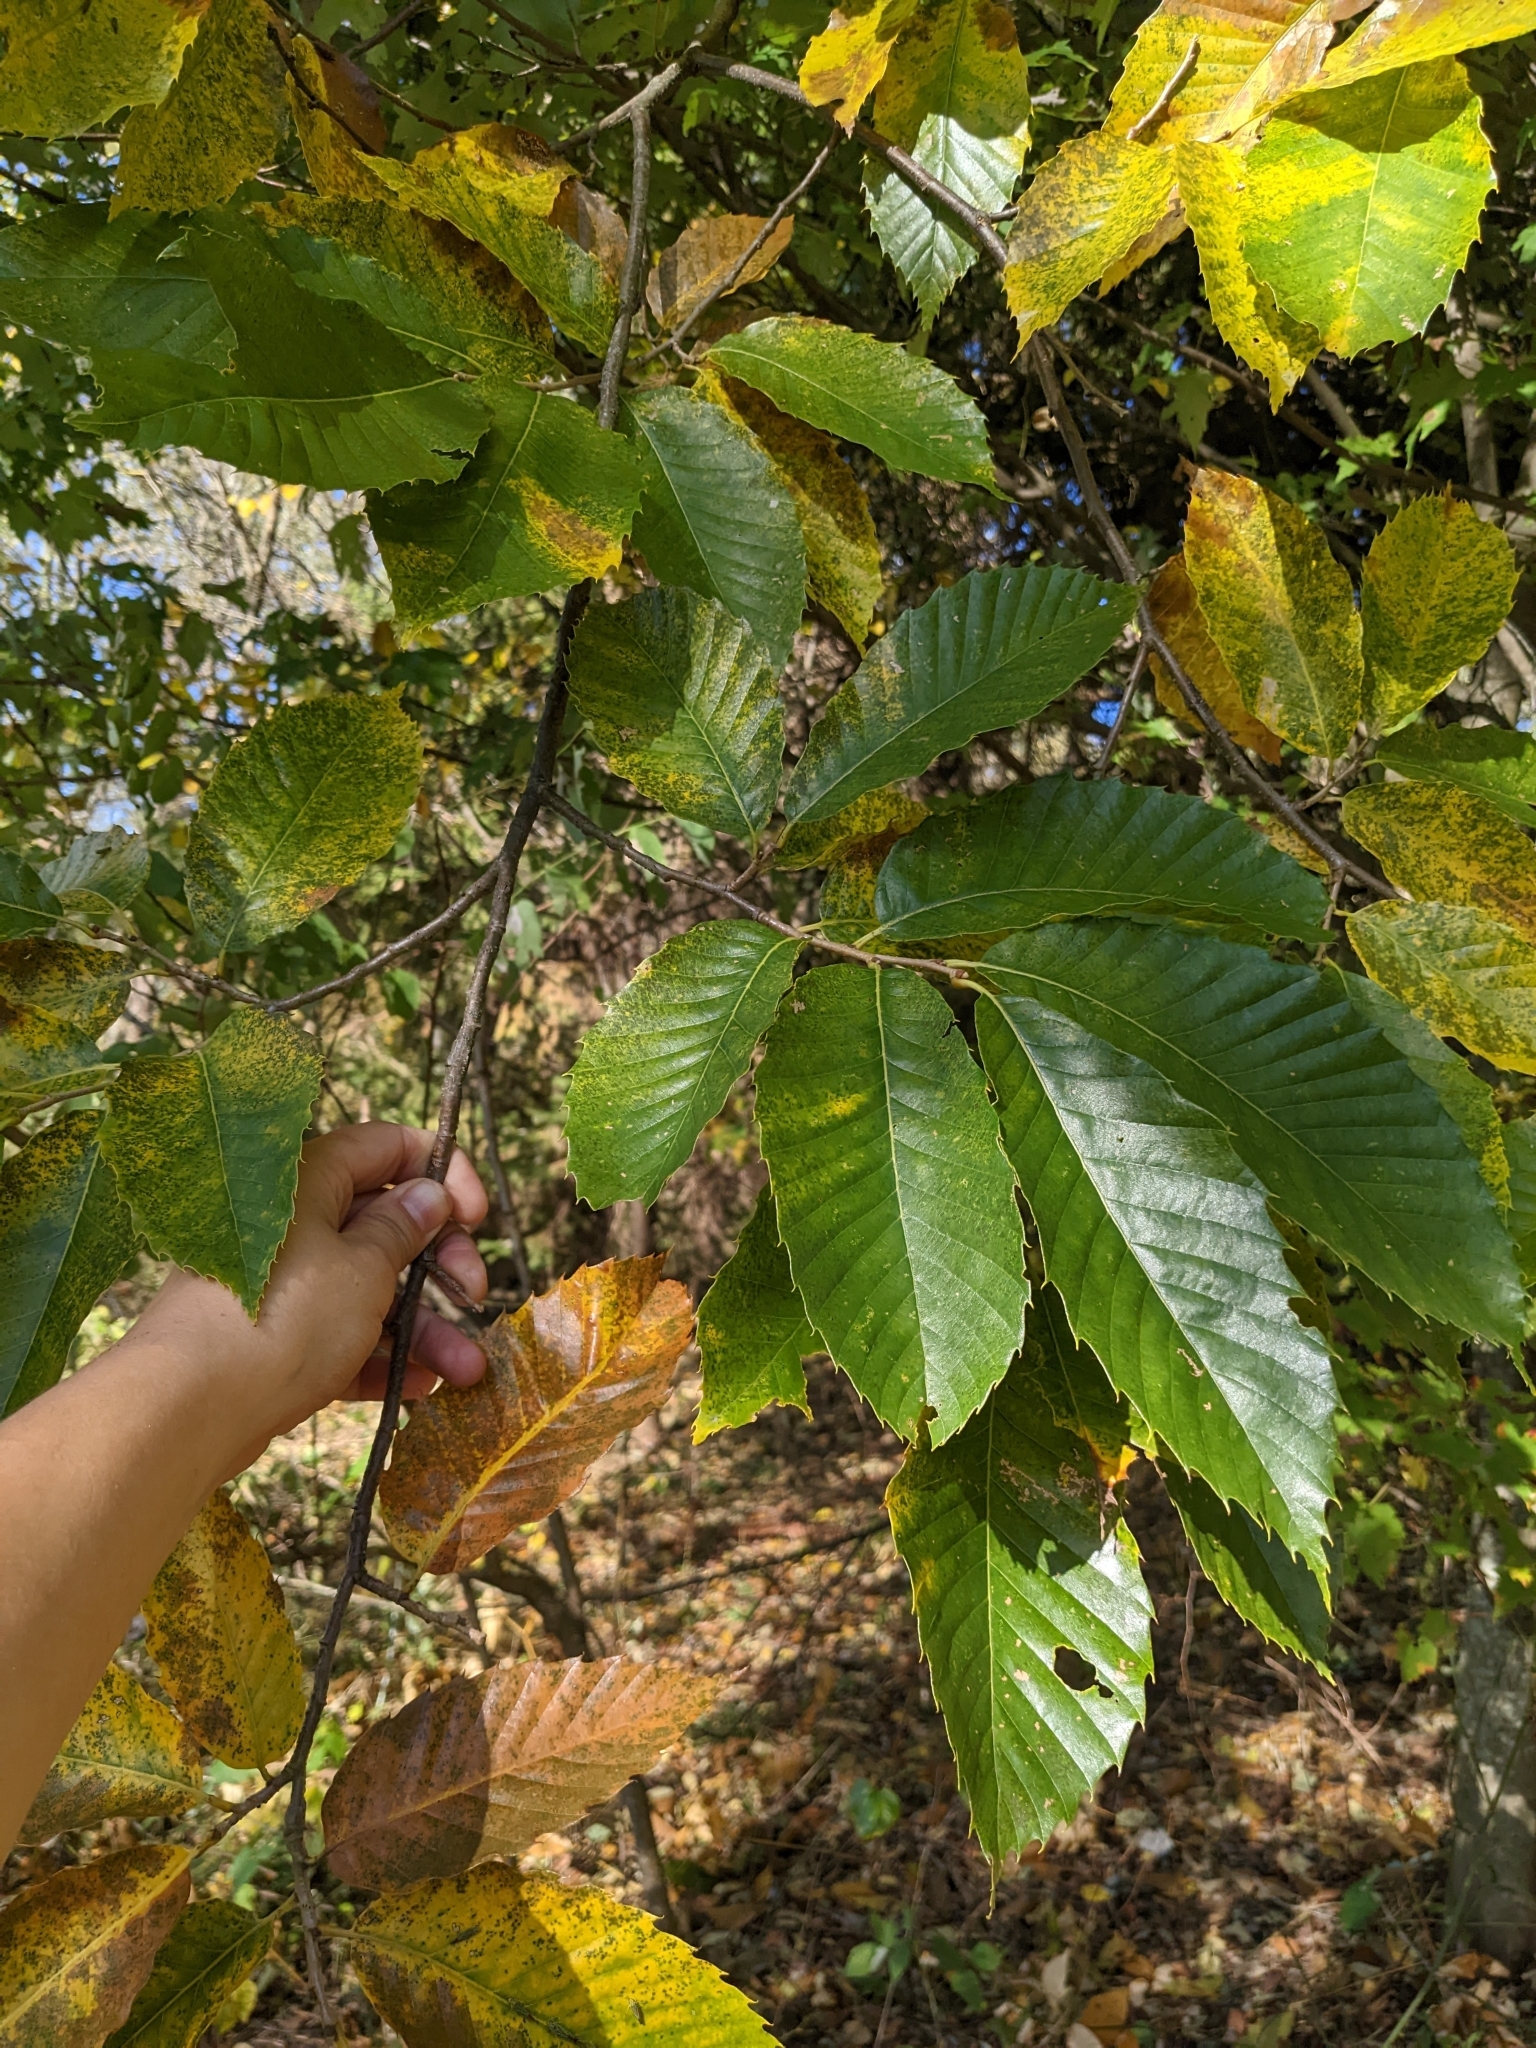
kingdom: Plantae
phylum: Tracheophyta
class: Magnoliopsida
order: Fagales
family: Fagaceae
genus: Castanea
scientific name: Castanea dentata
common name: American chestnut
